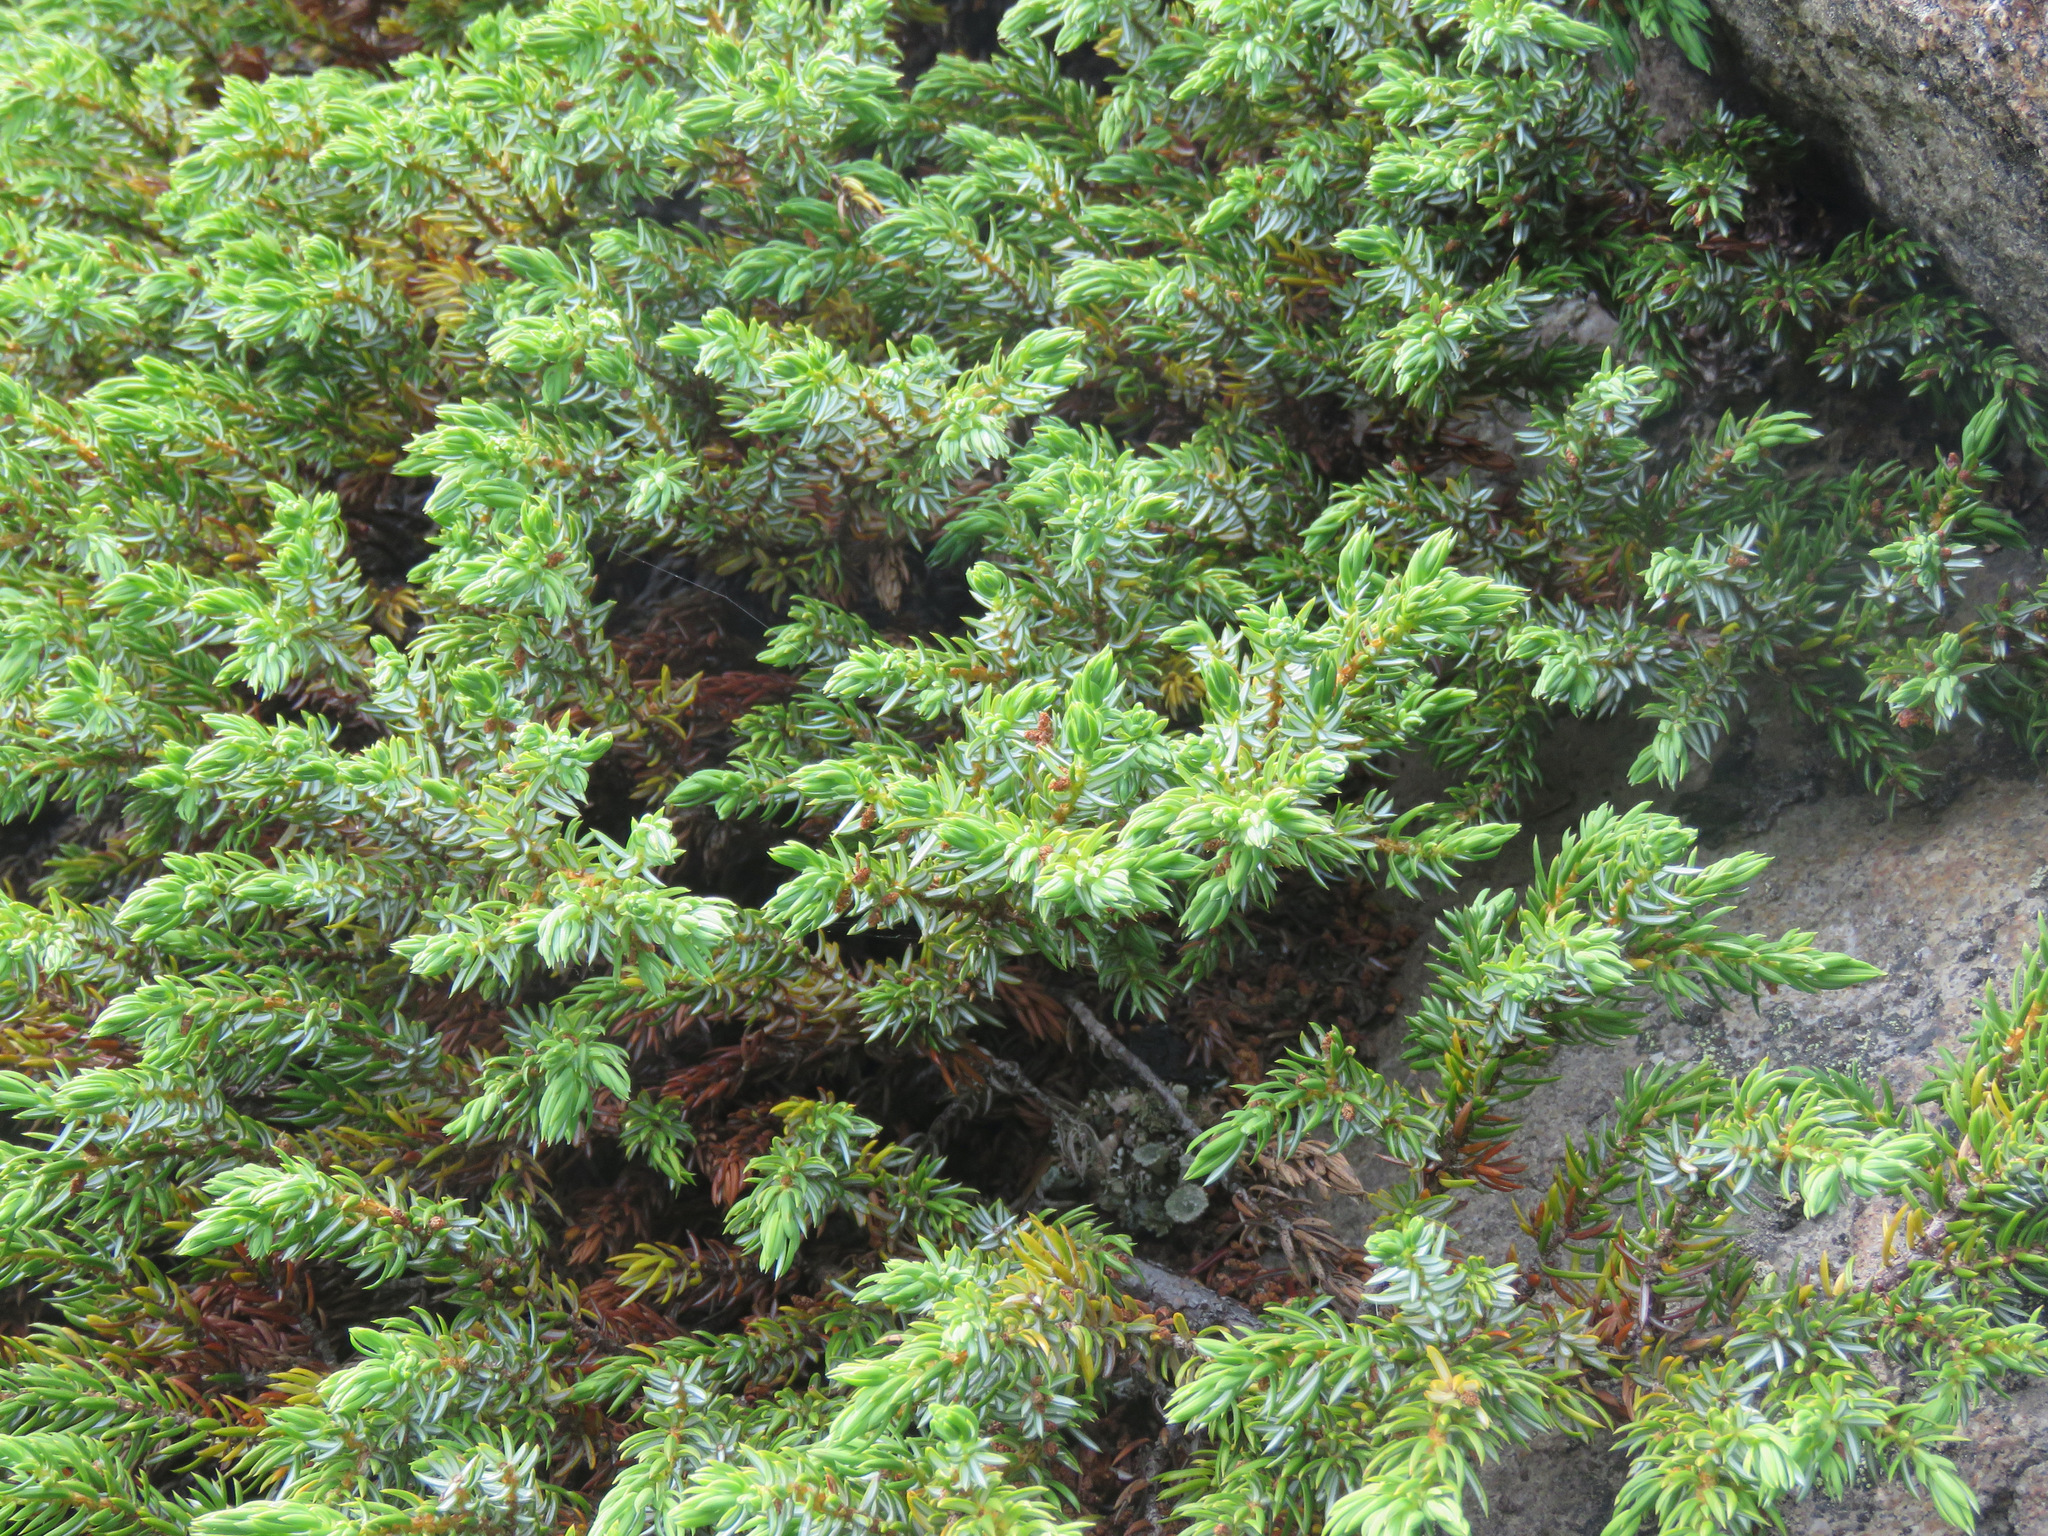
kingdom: Plantae
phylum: Tracheophyta
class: Pinopsida
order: Pinales
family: Cupressaceae
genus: Juniperus
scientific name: Juniperus communis
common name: Common juniper
